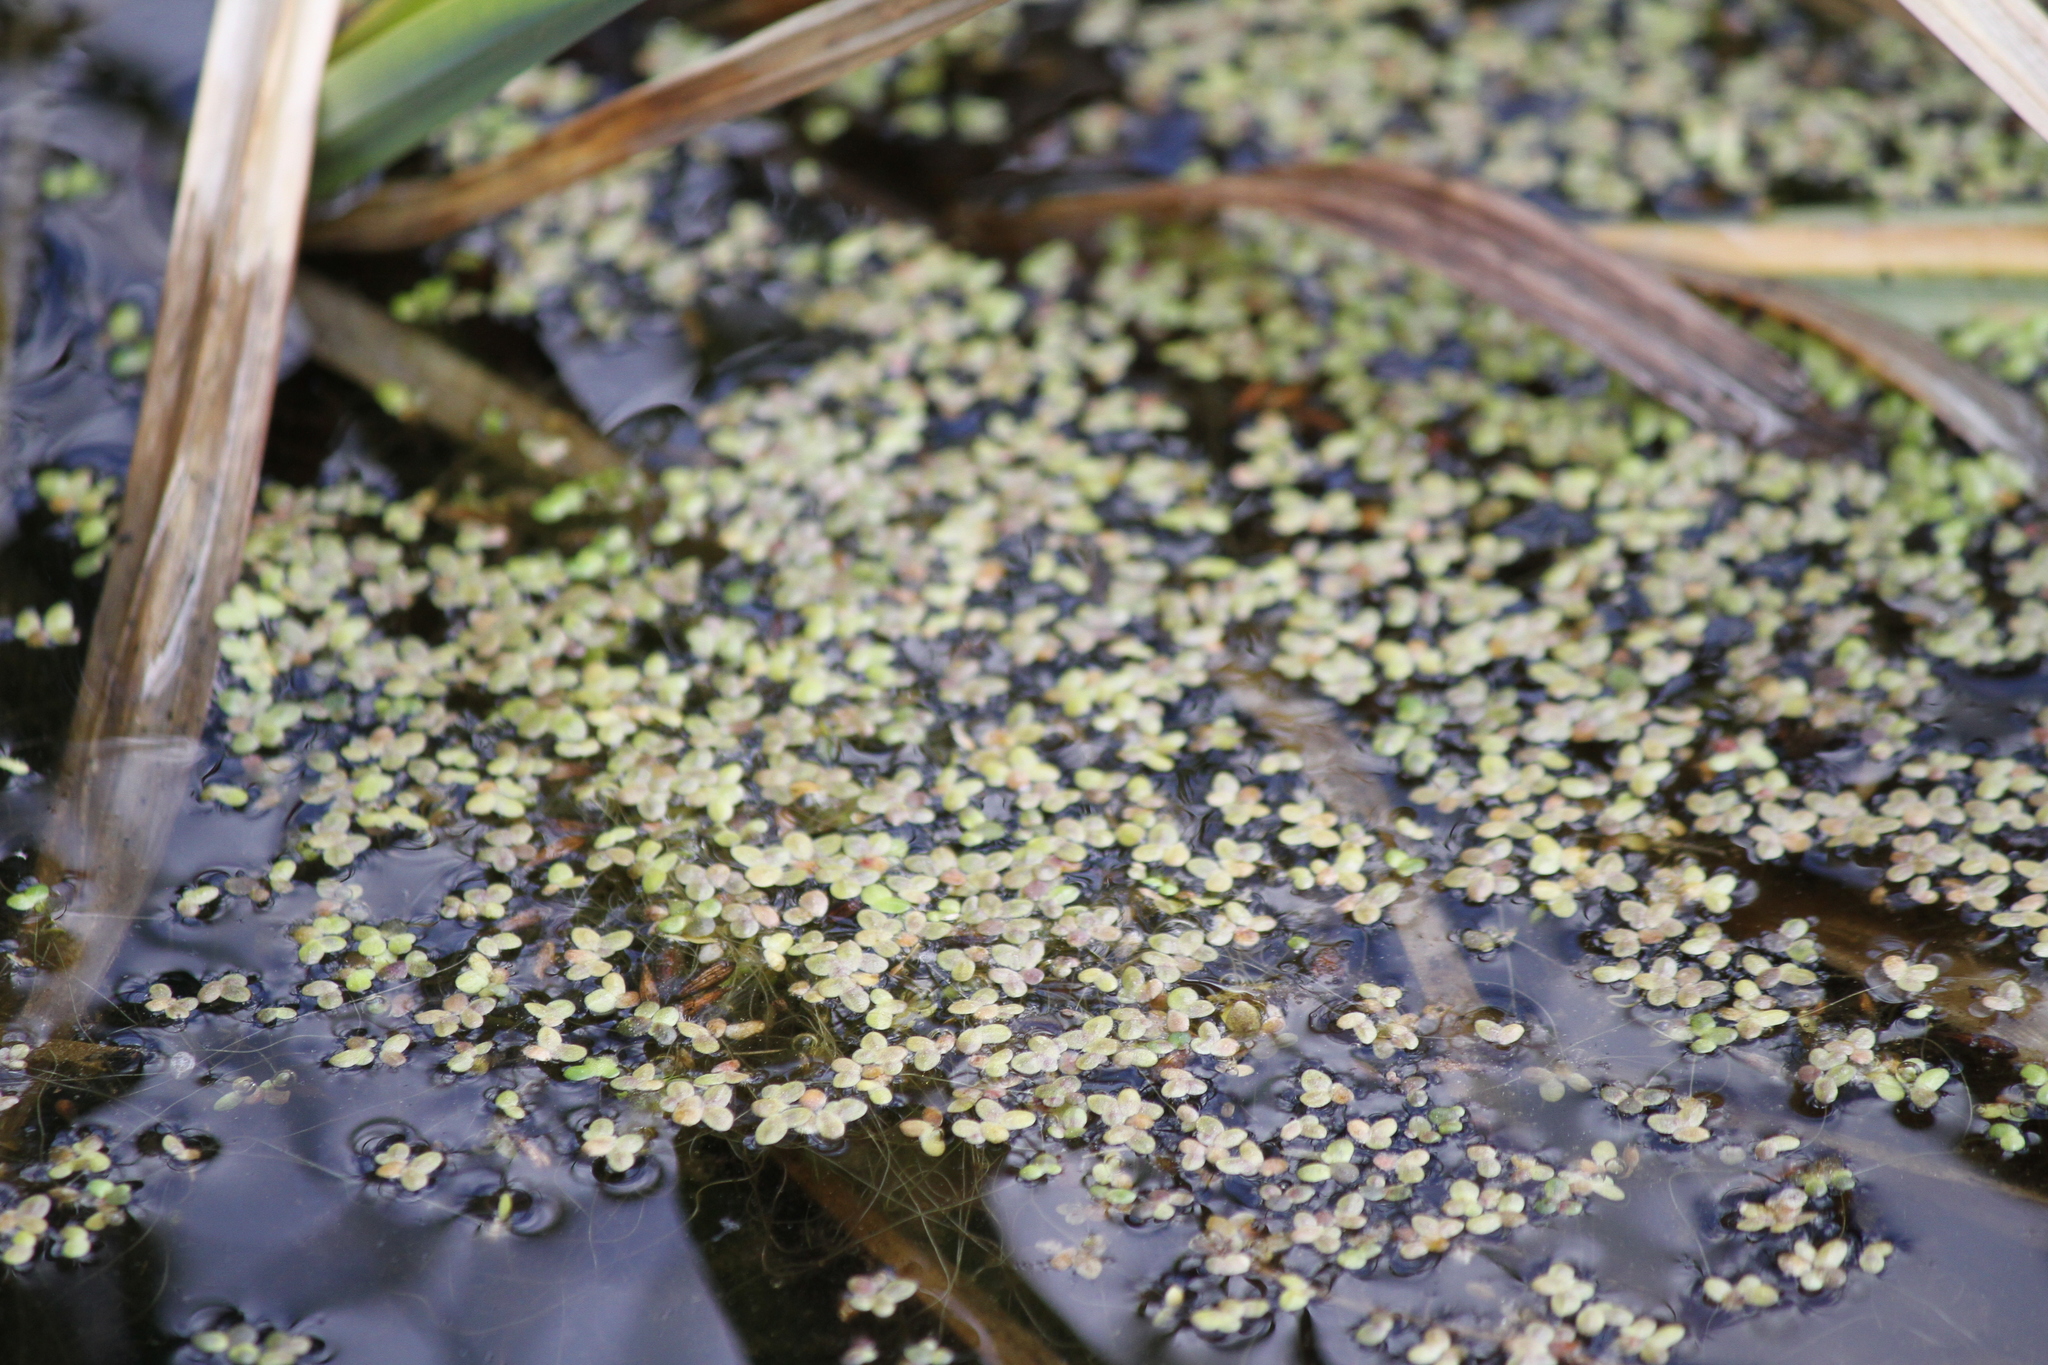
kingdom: Plantae
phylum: Tracheophyta
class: Liliopsida
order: Alismatales
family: Araceae
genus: Lemna
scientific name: Lemna minor
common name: Common duckweed
